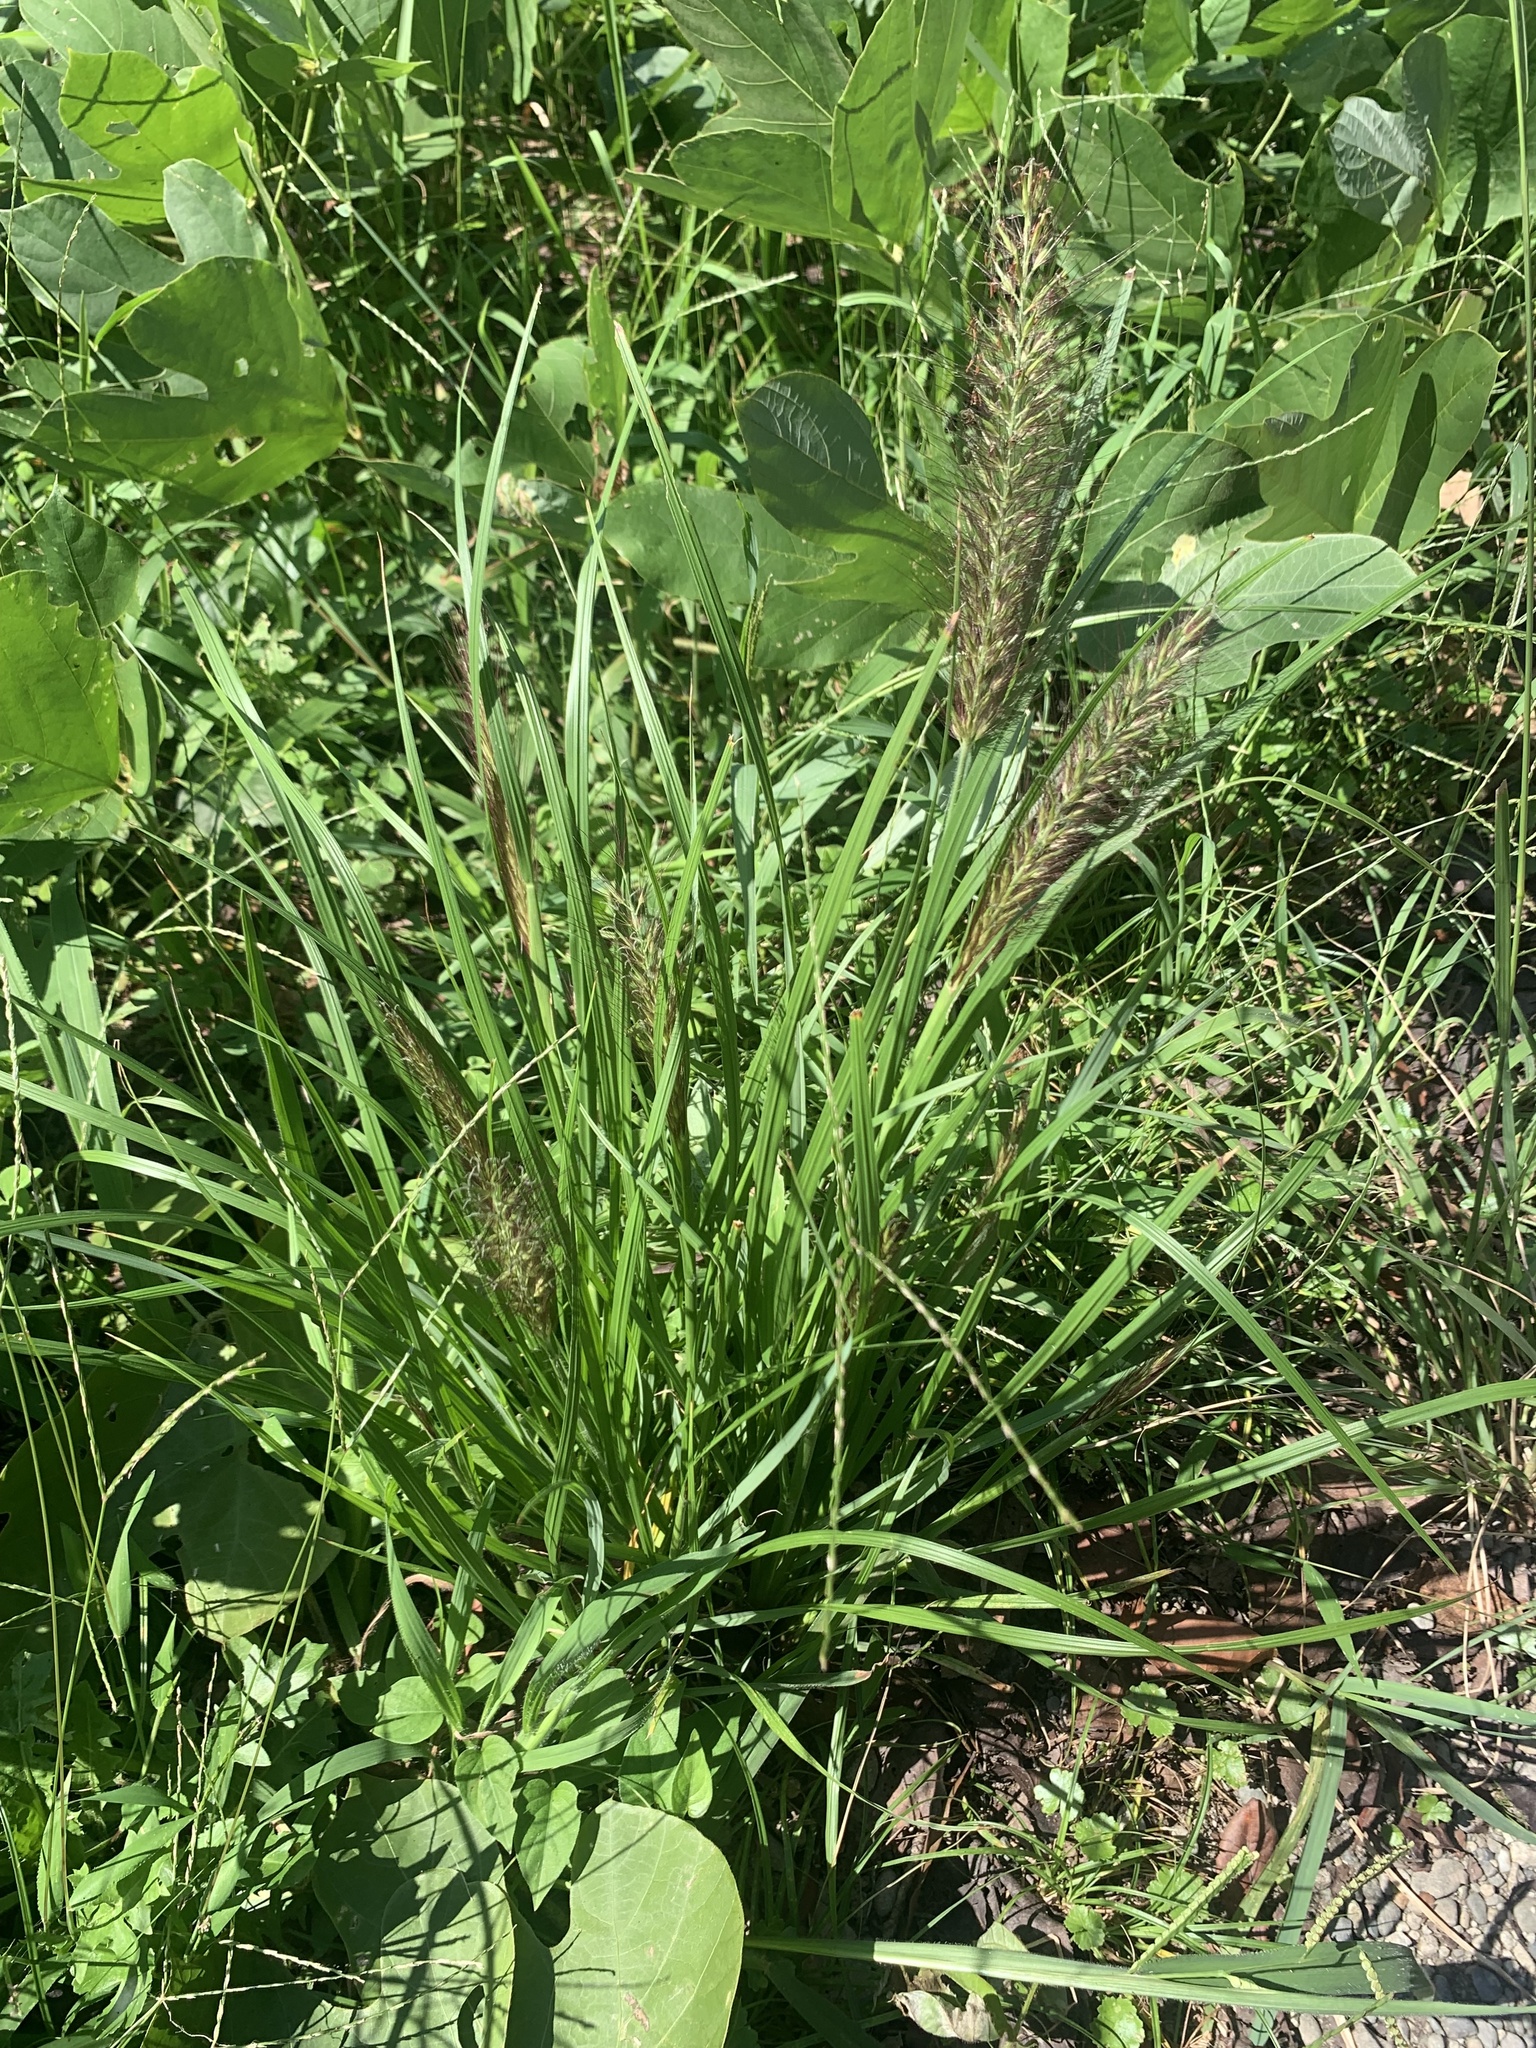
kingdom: Plantae
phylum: Tracheophyta
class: Liliopsida
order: Poales
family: Poaceae
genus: Cenchrus
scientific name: Cenchrus alopecuroides
